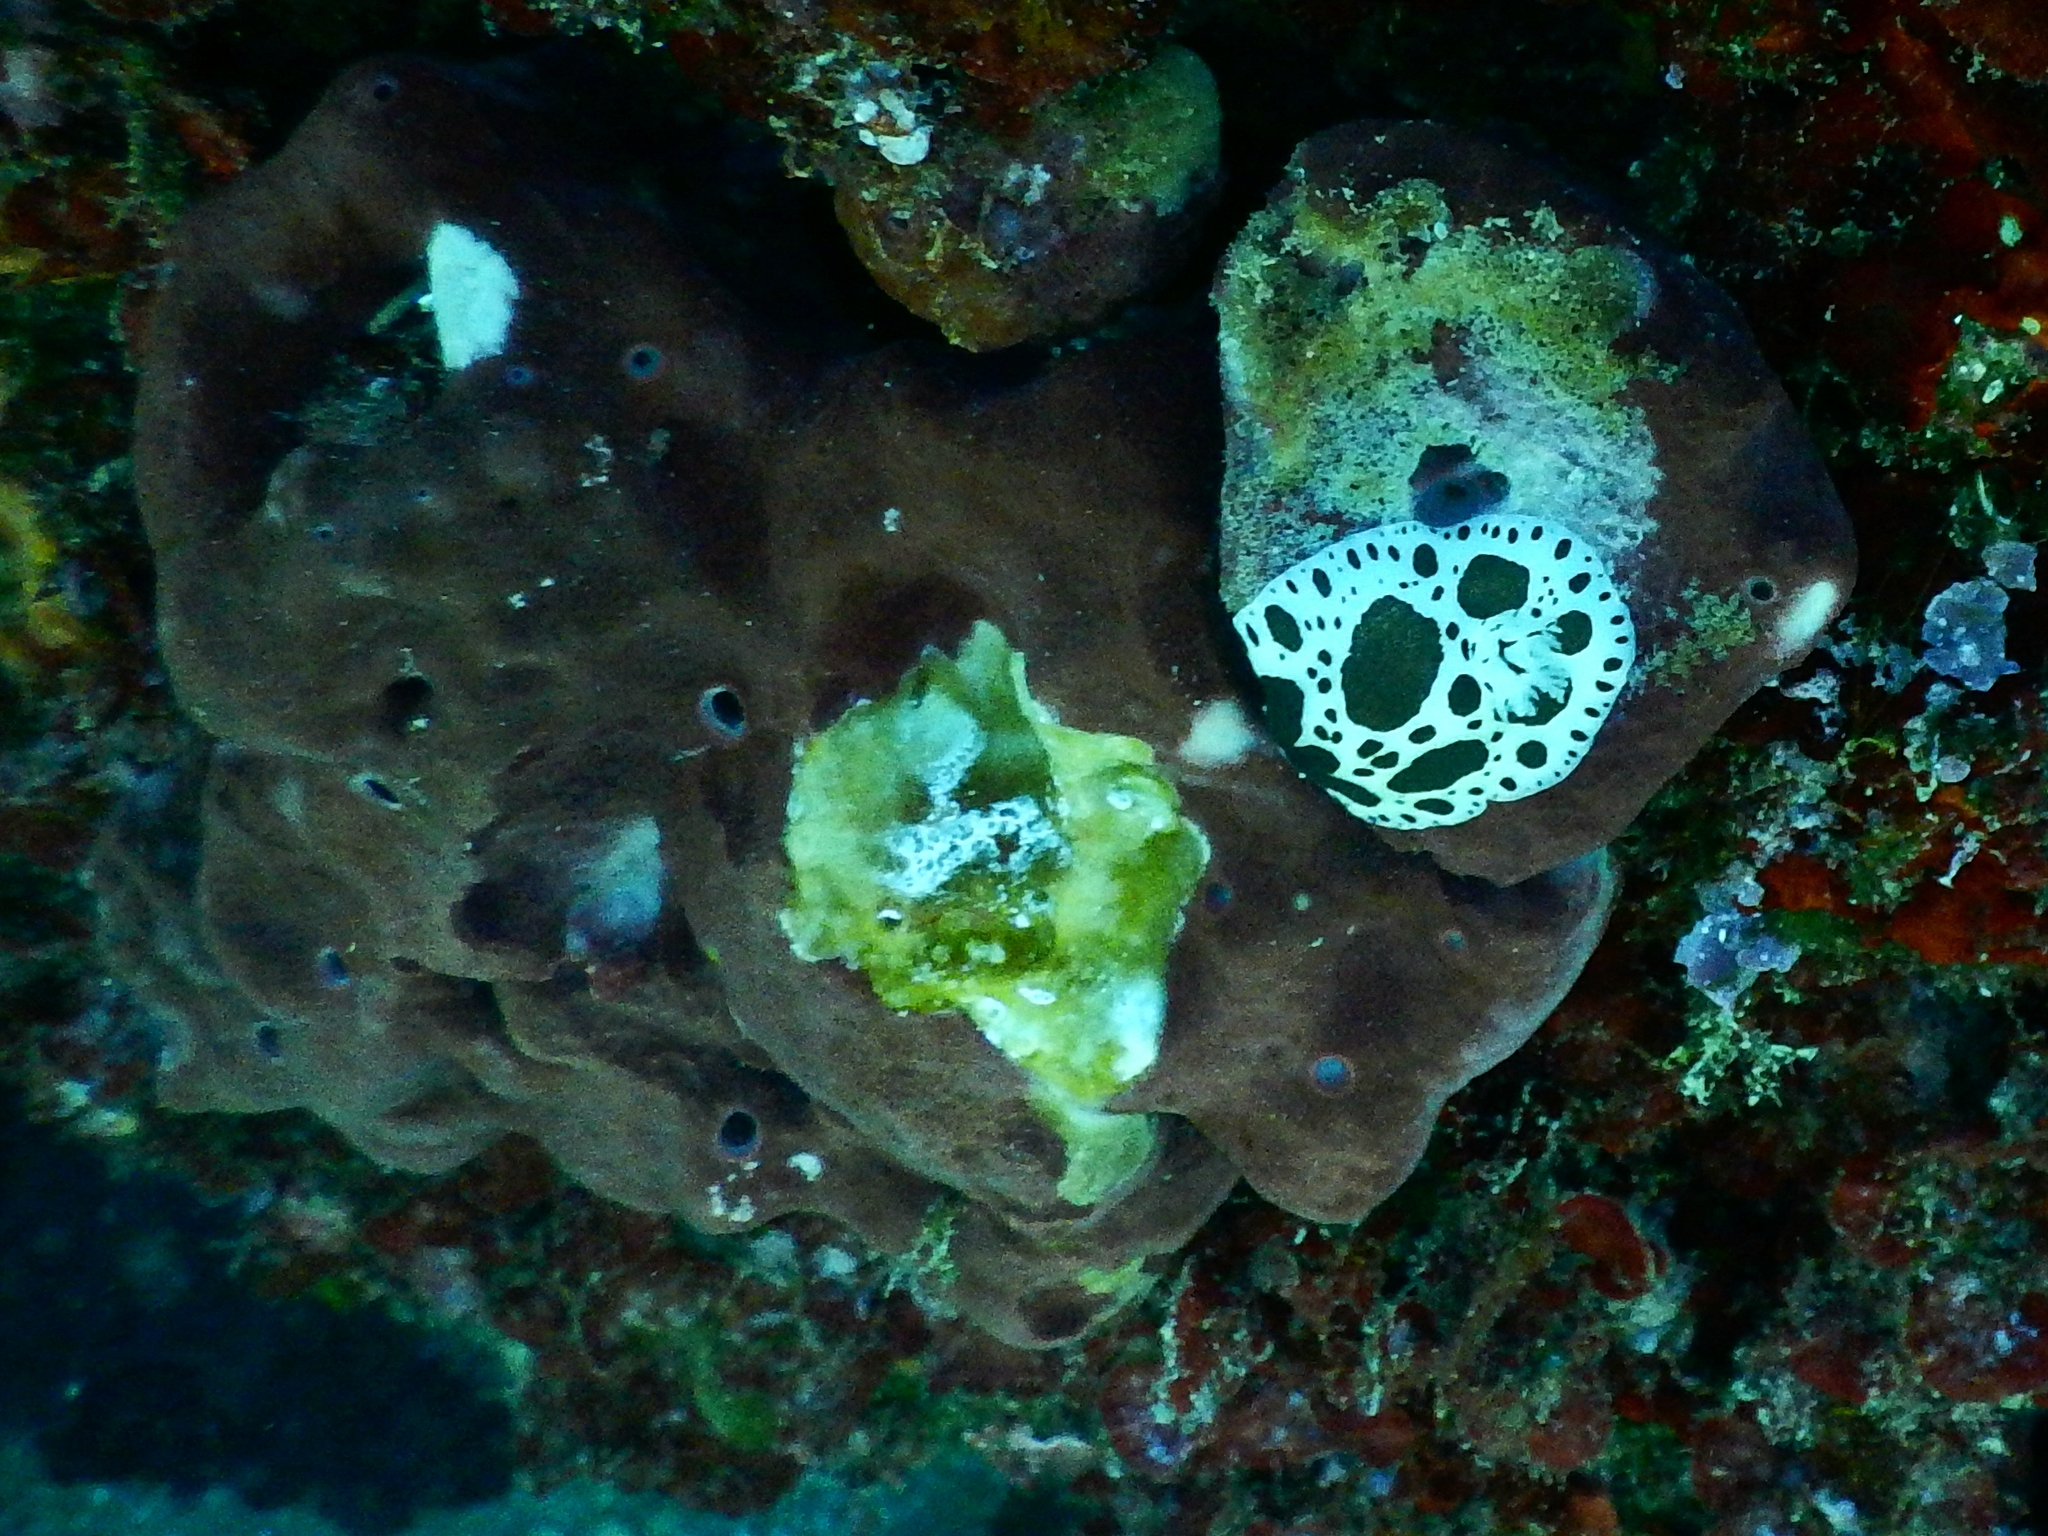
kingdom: Animalia
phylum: Mollusca
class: Gastropoda
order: Nudibranchia
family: Discodorididae
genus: Peltodoris
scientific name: Peltodoris atromaculata
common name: Swiss cow nudibranch
